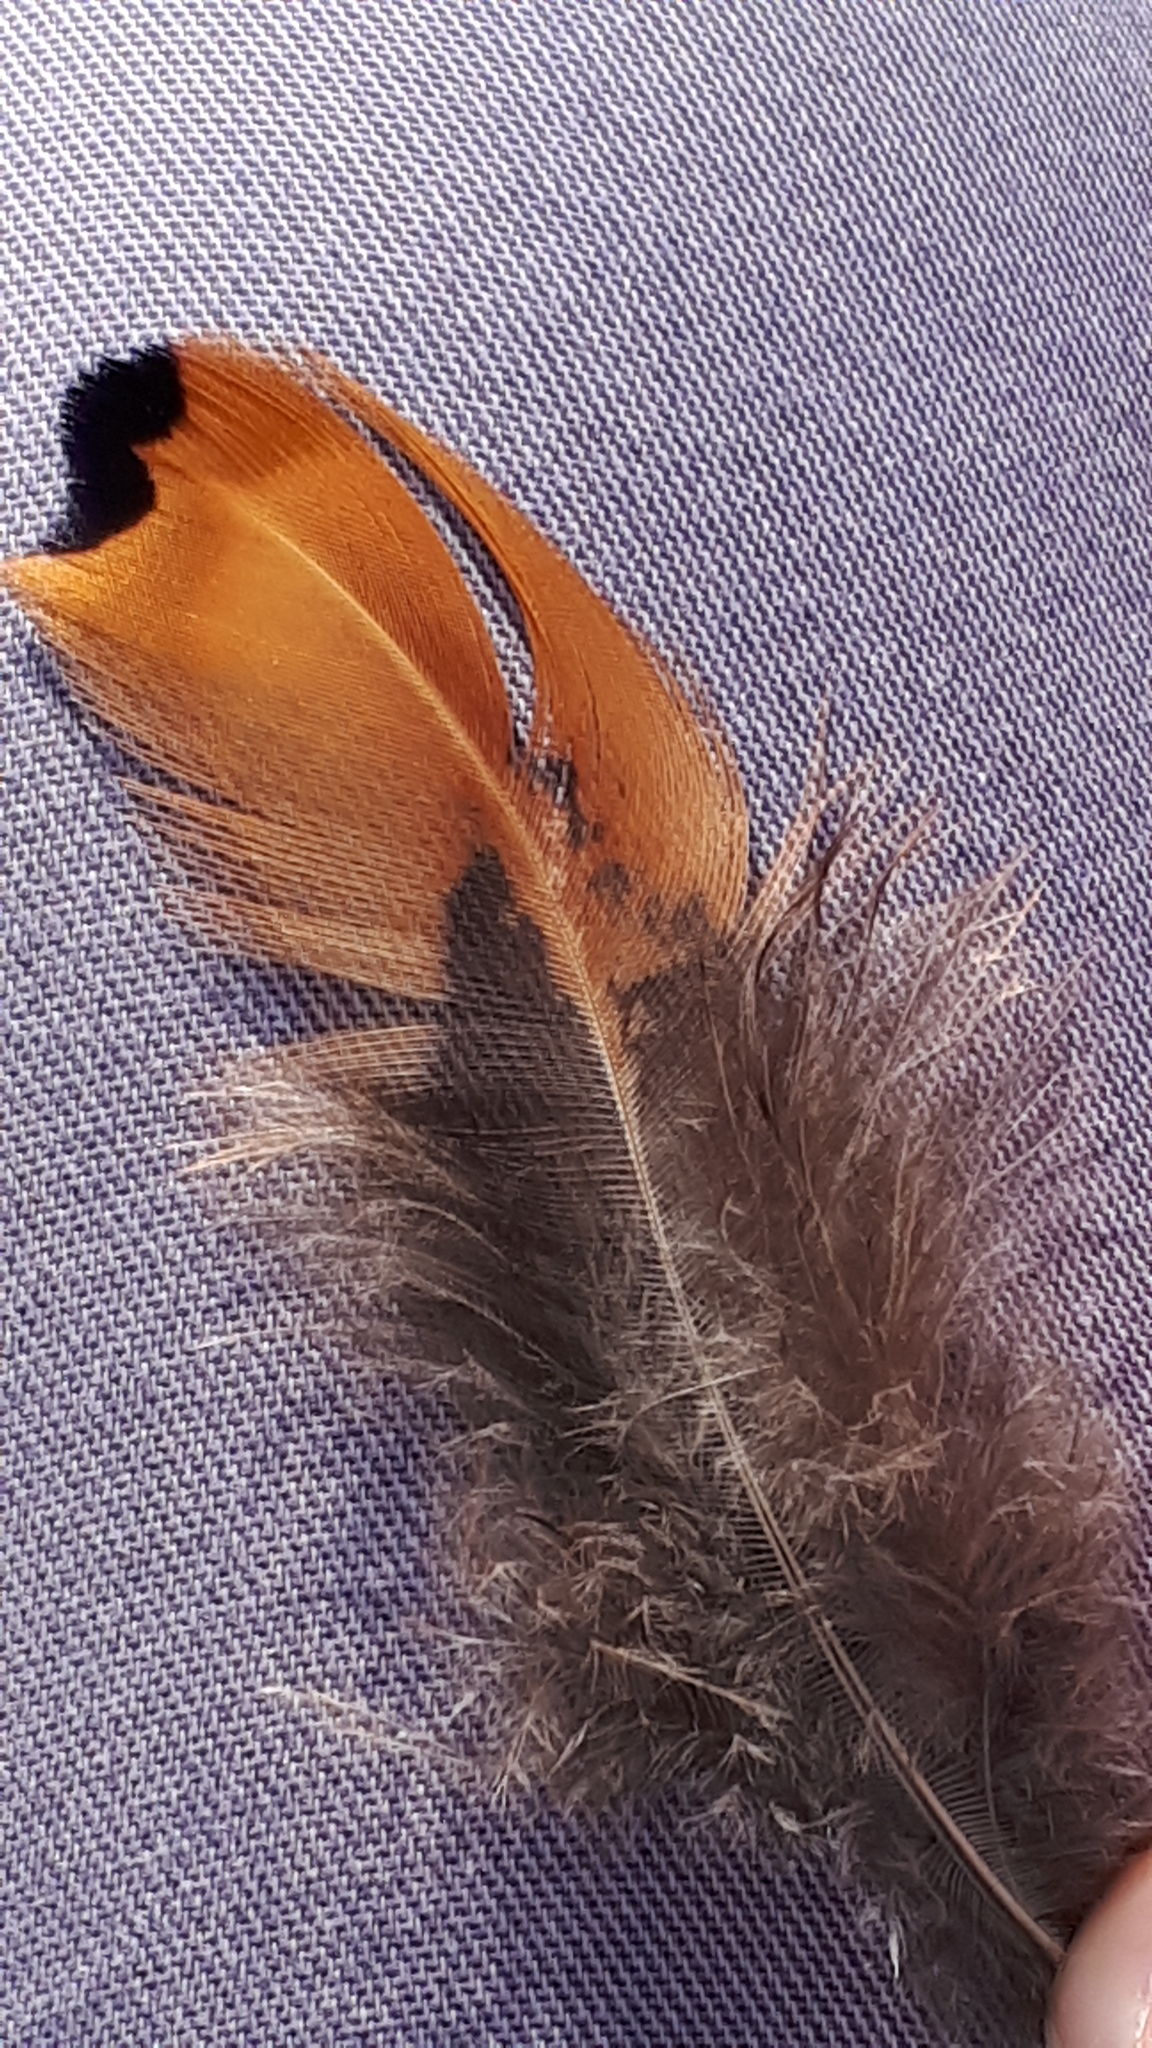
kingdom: Animalia
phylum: Chordata
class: Aves
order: Galliformes
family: Phasianidae
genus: Phasianus
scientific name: Phasianus colchicus
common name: Common pheasant
